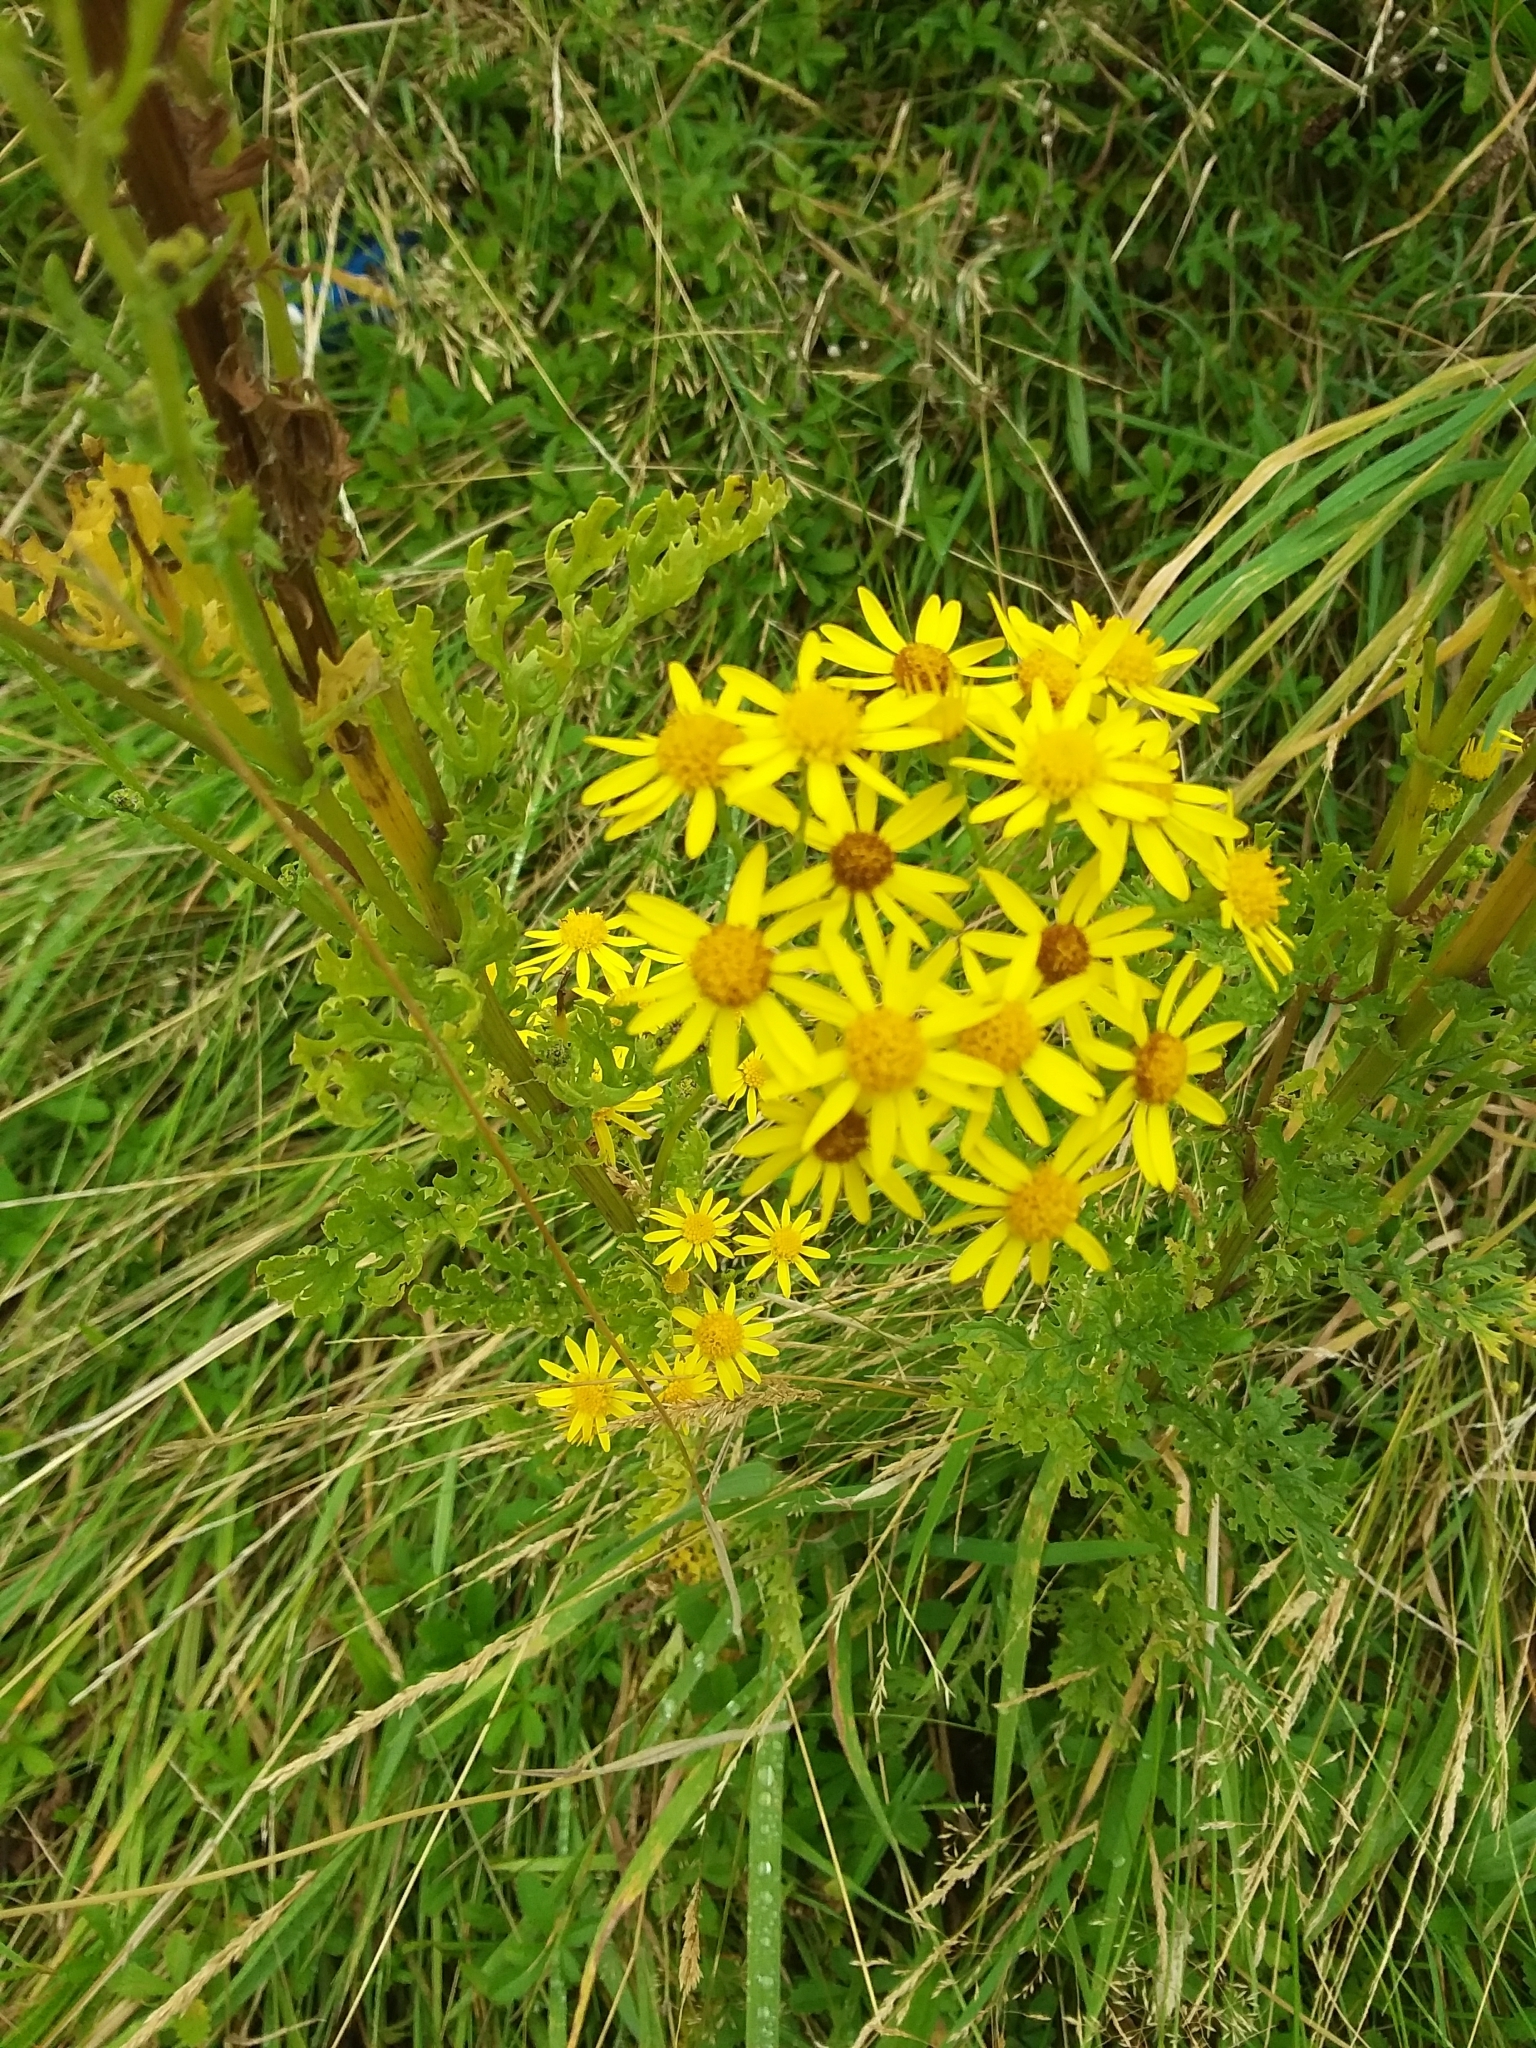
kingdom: Plantae
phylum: Tracheophyta
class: Magnoliopsida
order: Asterales
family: Asteraceae
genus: Jacobaea
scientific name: Jacobaea vulgaris
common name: Stinking willie
